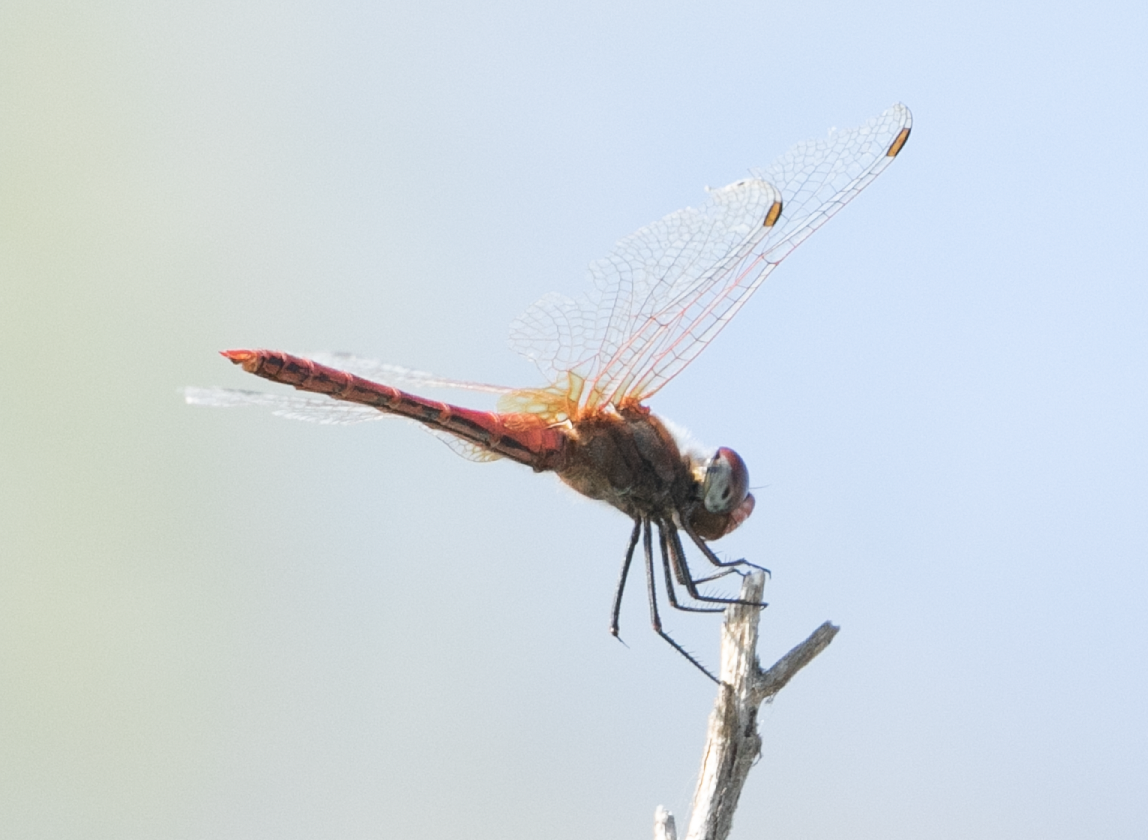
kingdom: Animalia
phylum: Arthropoda
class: Insecta
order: Odonata
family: Libellulidae
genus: Sympetrum
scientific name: Sympetrum fonscolombii
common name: Red-veined darter
